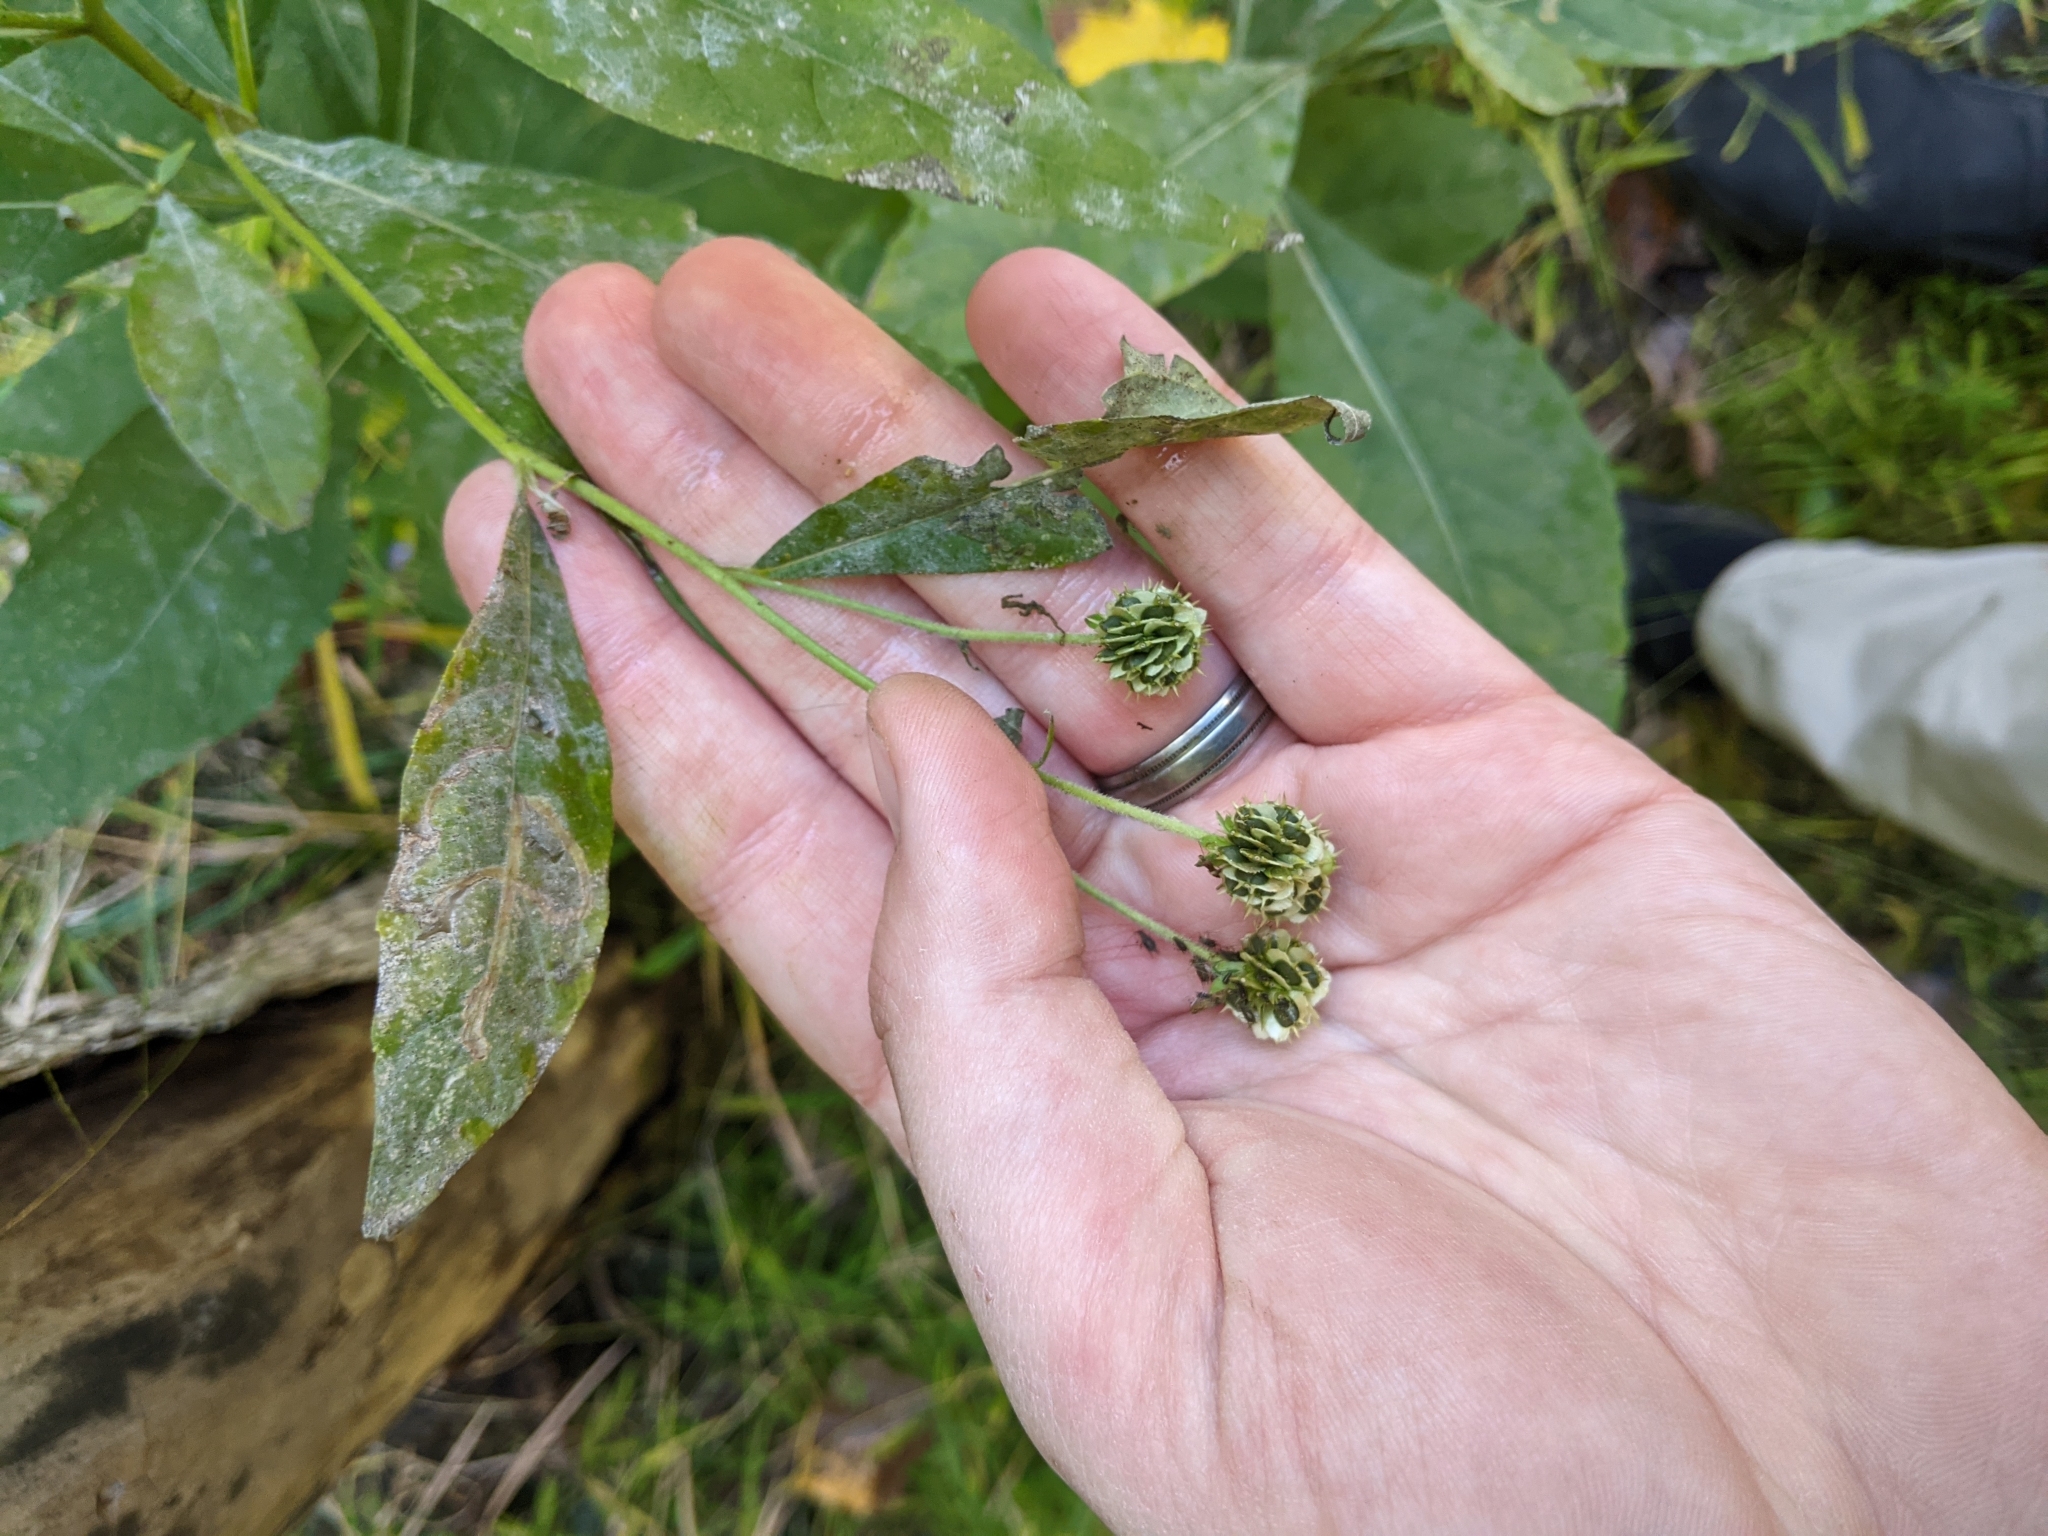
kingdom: Plantae
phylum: Tracheophyta
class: Magnoliopsida
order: Asterales
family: Asteraceae
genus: Verbesina
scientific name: Verbesina alternifolia
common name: Wingstem
